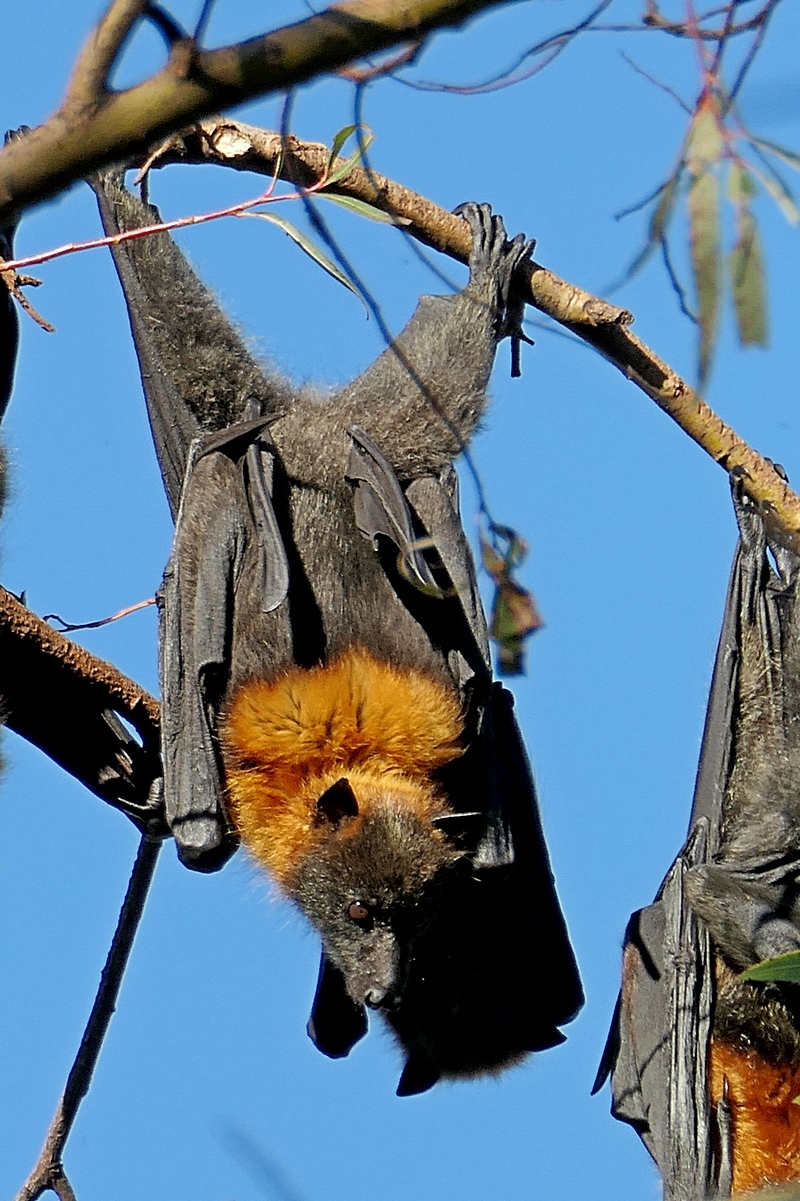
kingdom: Animalia
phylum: Chordata
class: Mammalia
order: Chiroptera
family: Pteropodidae
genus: Pteropus
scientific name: Pteropus poliocephalus
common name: Gray-headed flying fox
